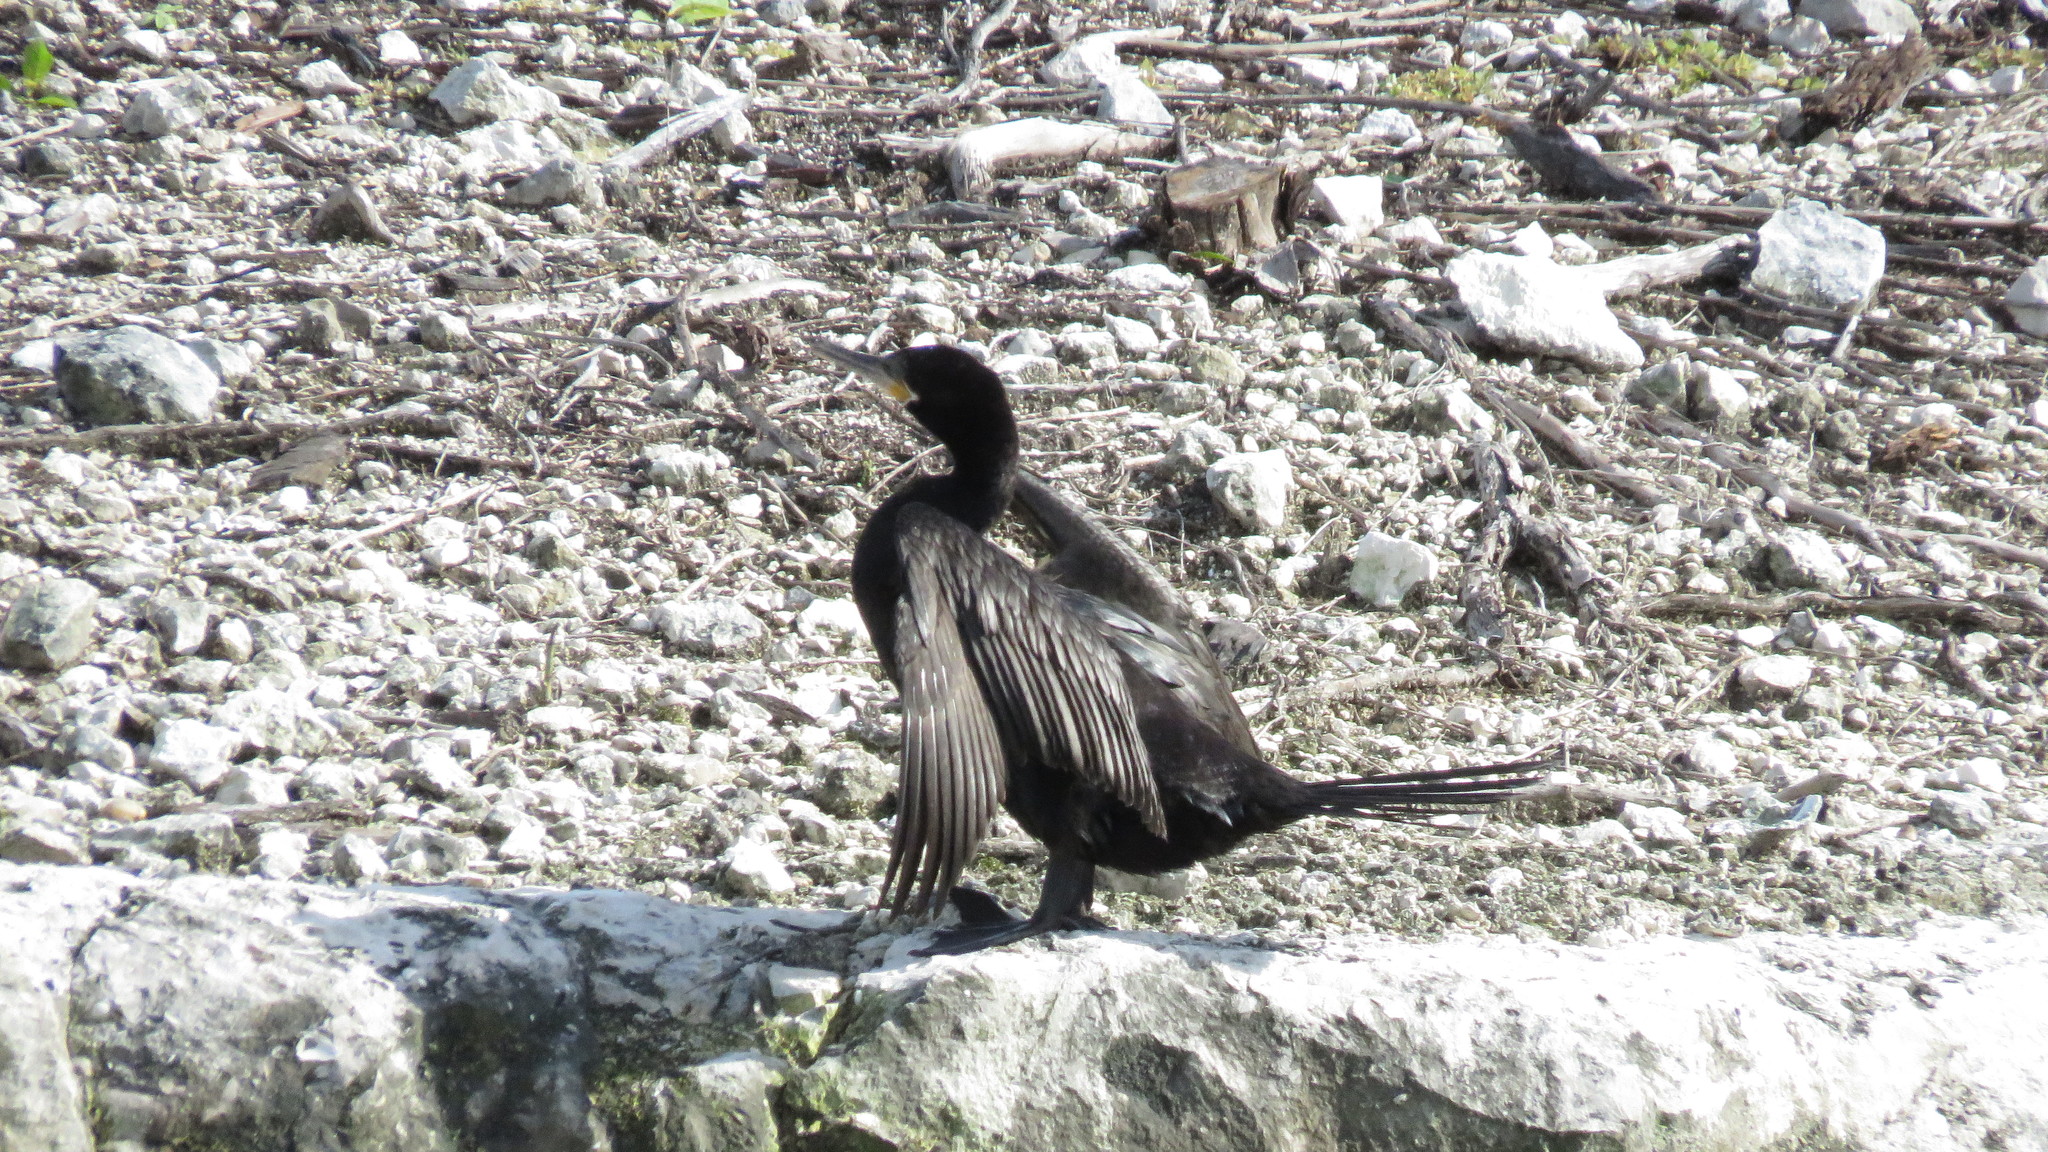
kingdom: Animalia
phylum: Chordata
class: Aves
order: Suliformes
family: Phalacrocoracidae
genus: Phalacrocorax
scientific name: Phalacrocorax brasilianus
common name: Neotropic cormorant
